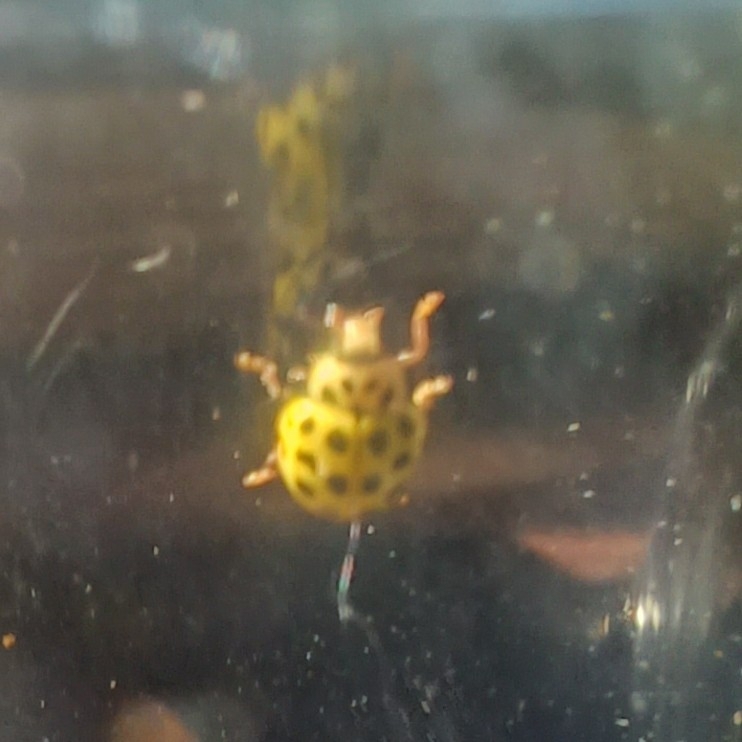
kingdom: Animalia
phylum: Arthropoda
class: Insecta
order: Coleoptera
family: Coccinellidae
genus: Psyllobora
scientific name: Psyllobora vigintiduopunctata
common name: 22-spot ladybird
